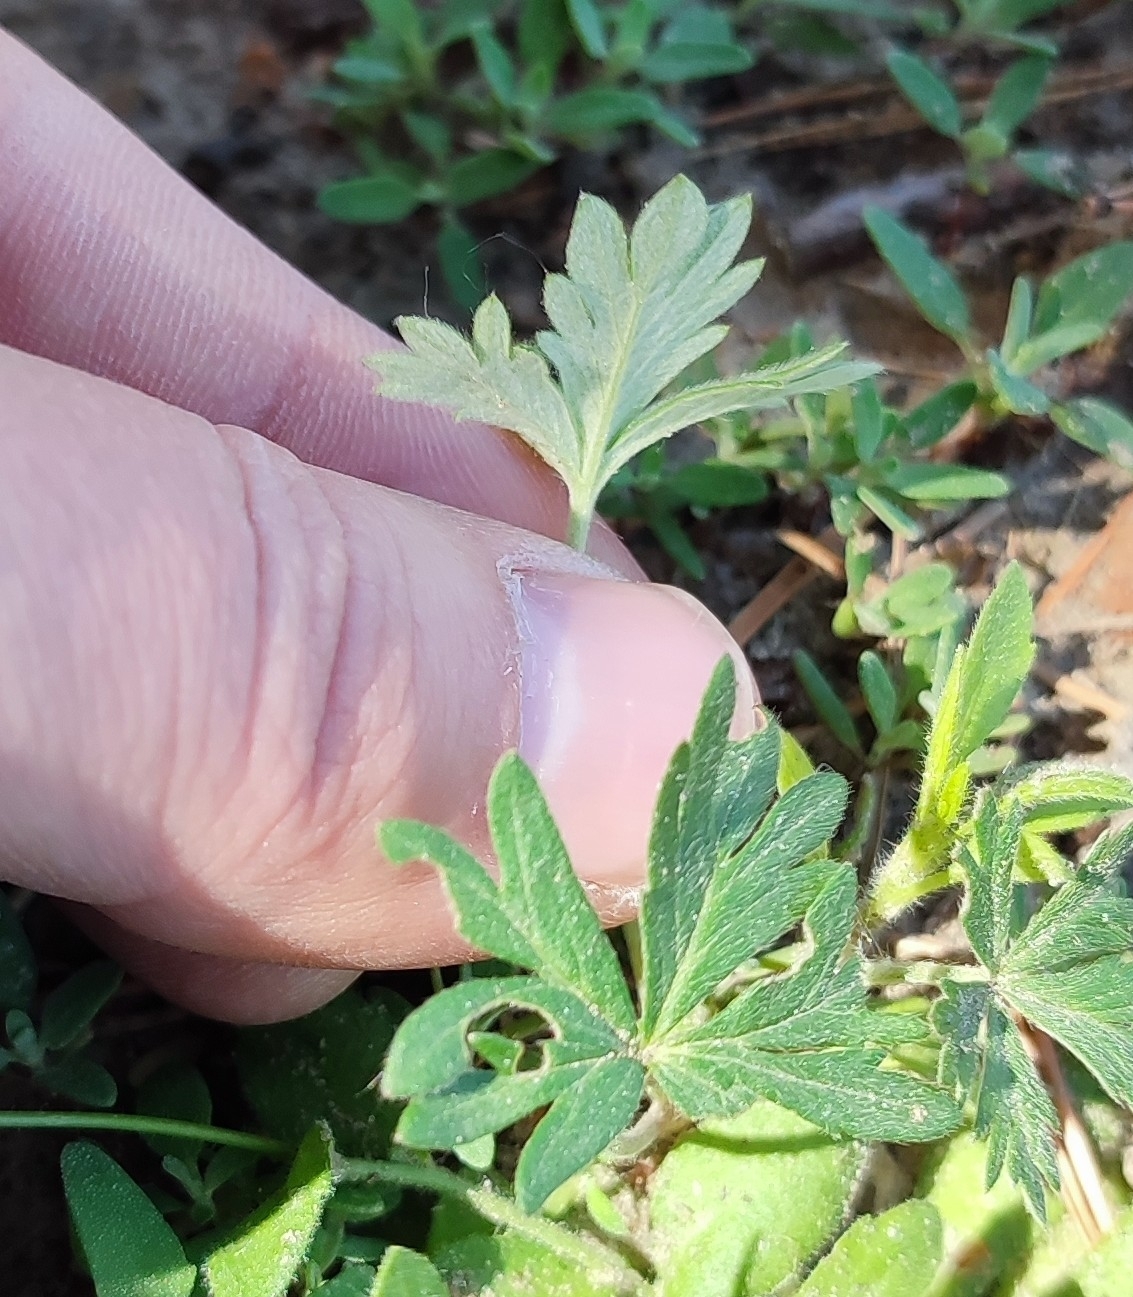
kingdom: Plantae
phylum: Tracheophyta
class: Magnoliopsida
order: Rosales
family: Rosaceae
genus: Potentilla
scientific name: Potentilla argentea
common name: Hoary cinquefoil
